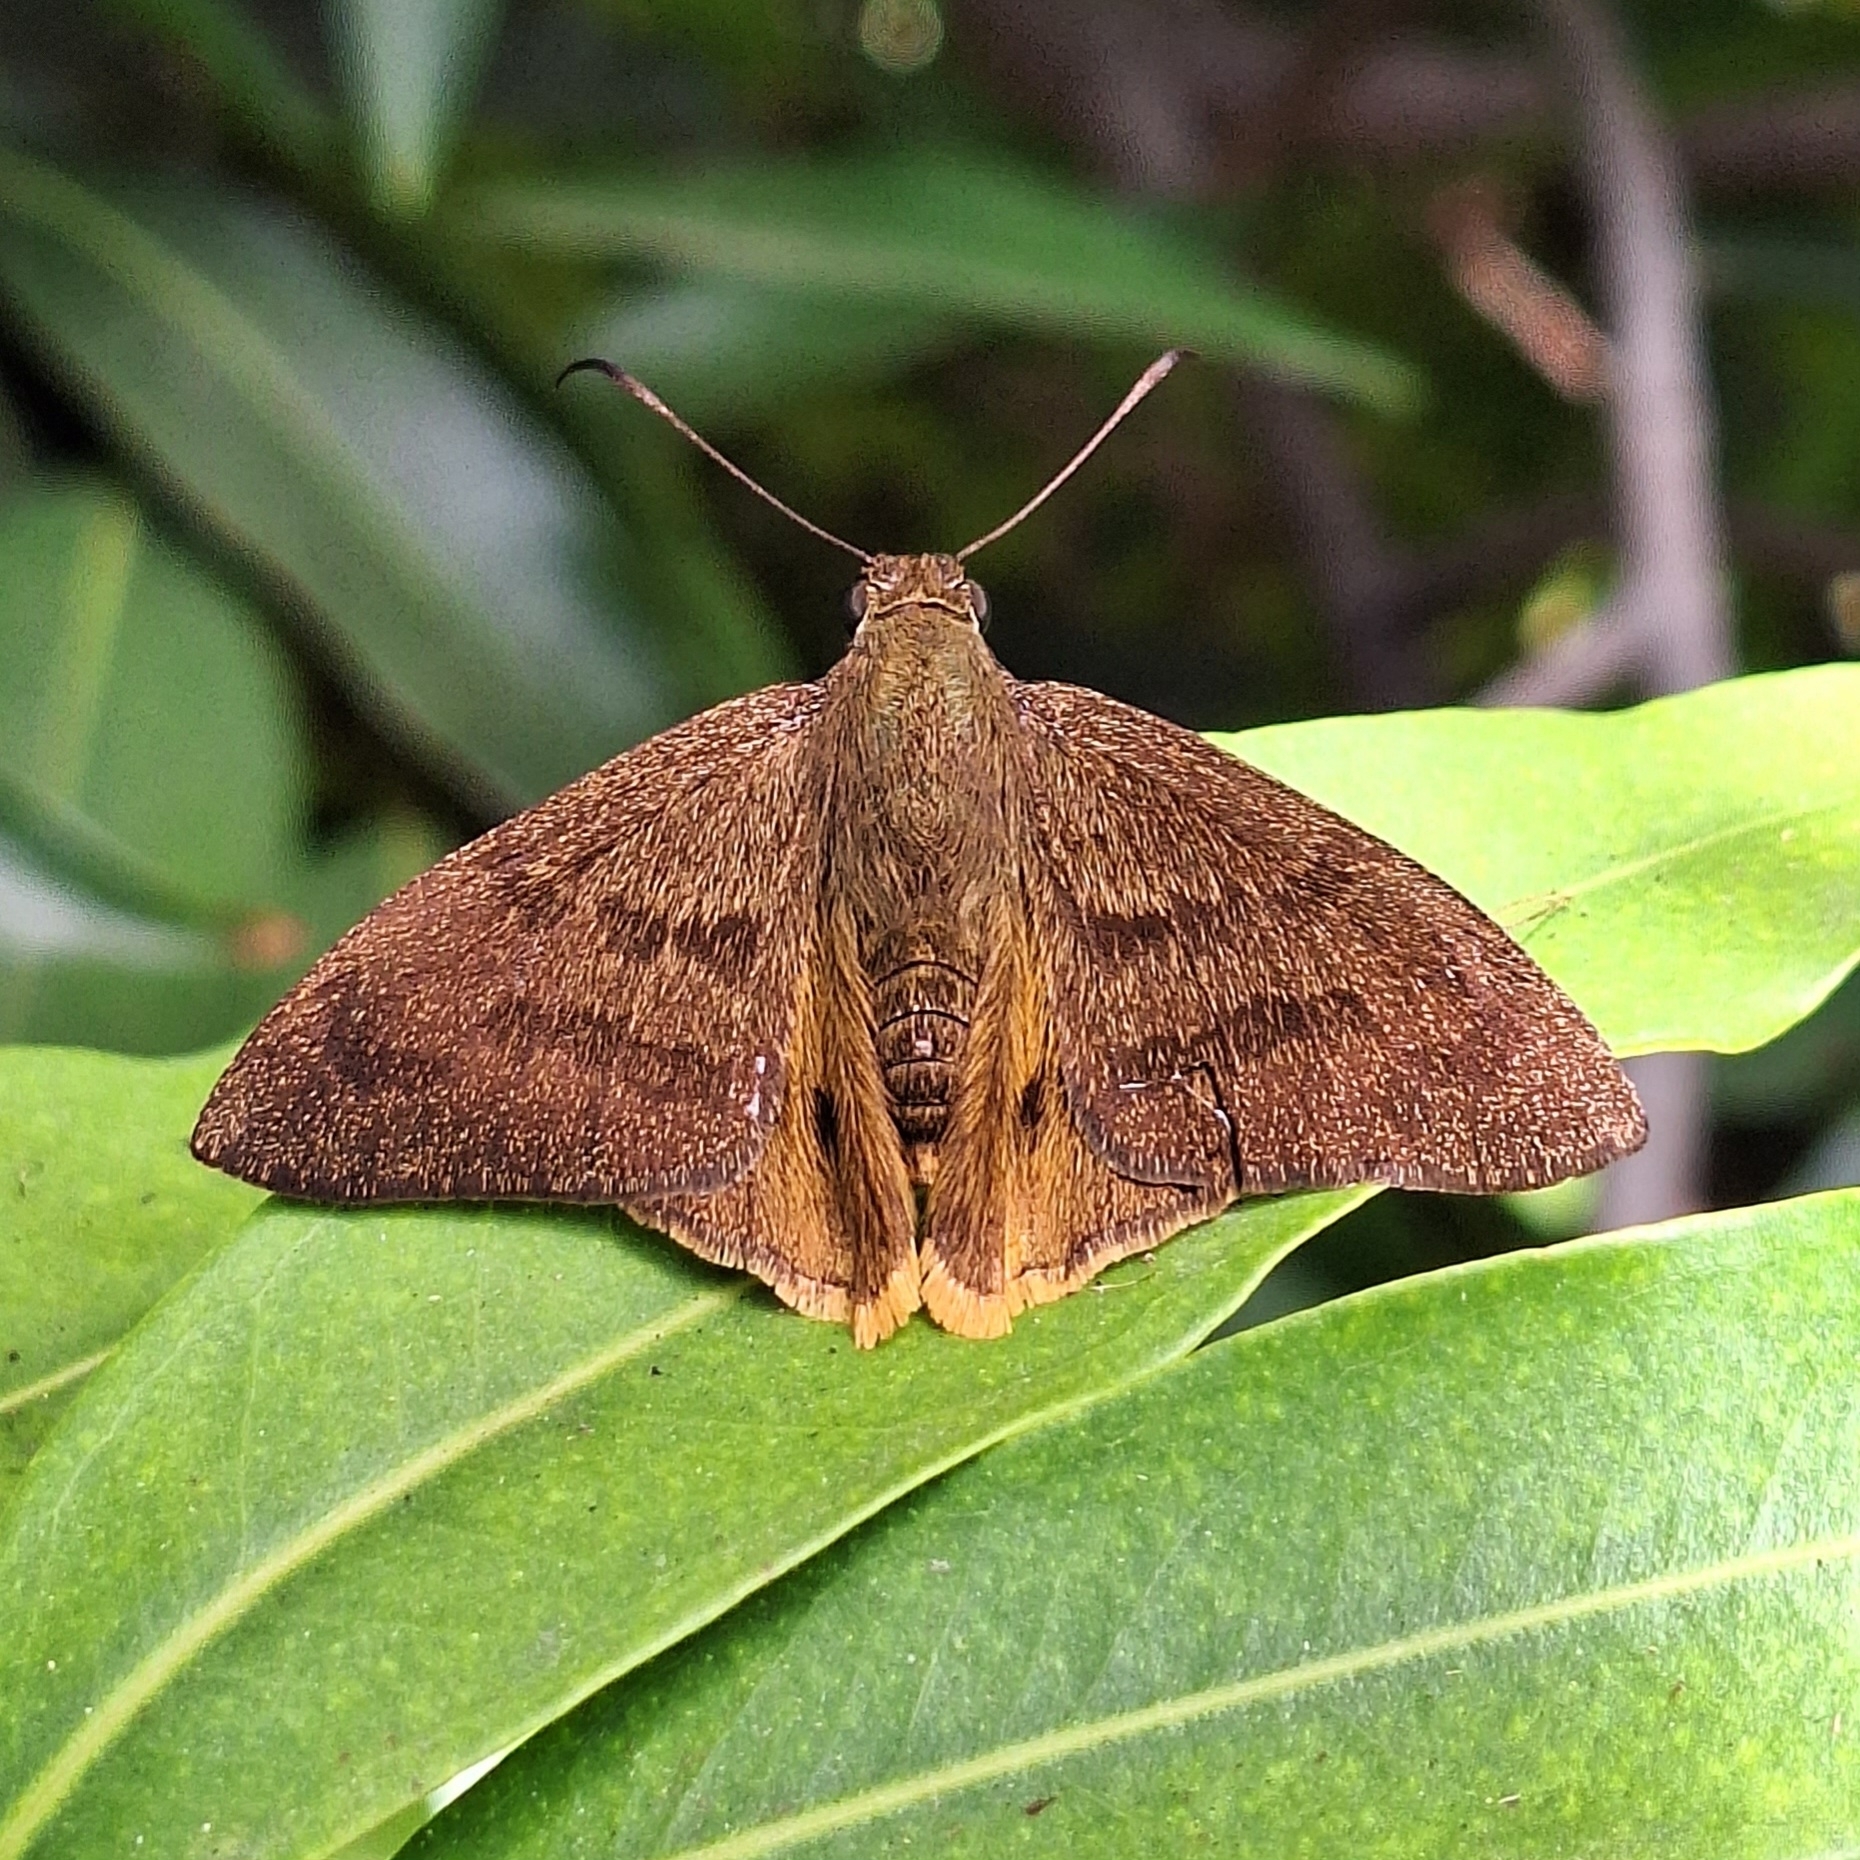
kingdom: Animalia
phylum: Arthropoda
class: Insecta
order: Lepidoptera
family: Hesperiidae
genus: Astraptes
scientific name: Astraptes anaphus
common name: Yellow-tipped flasher
